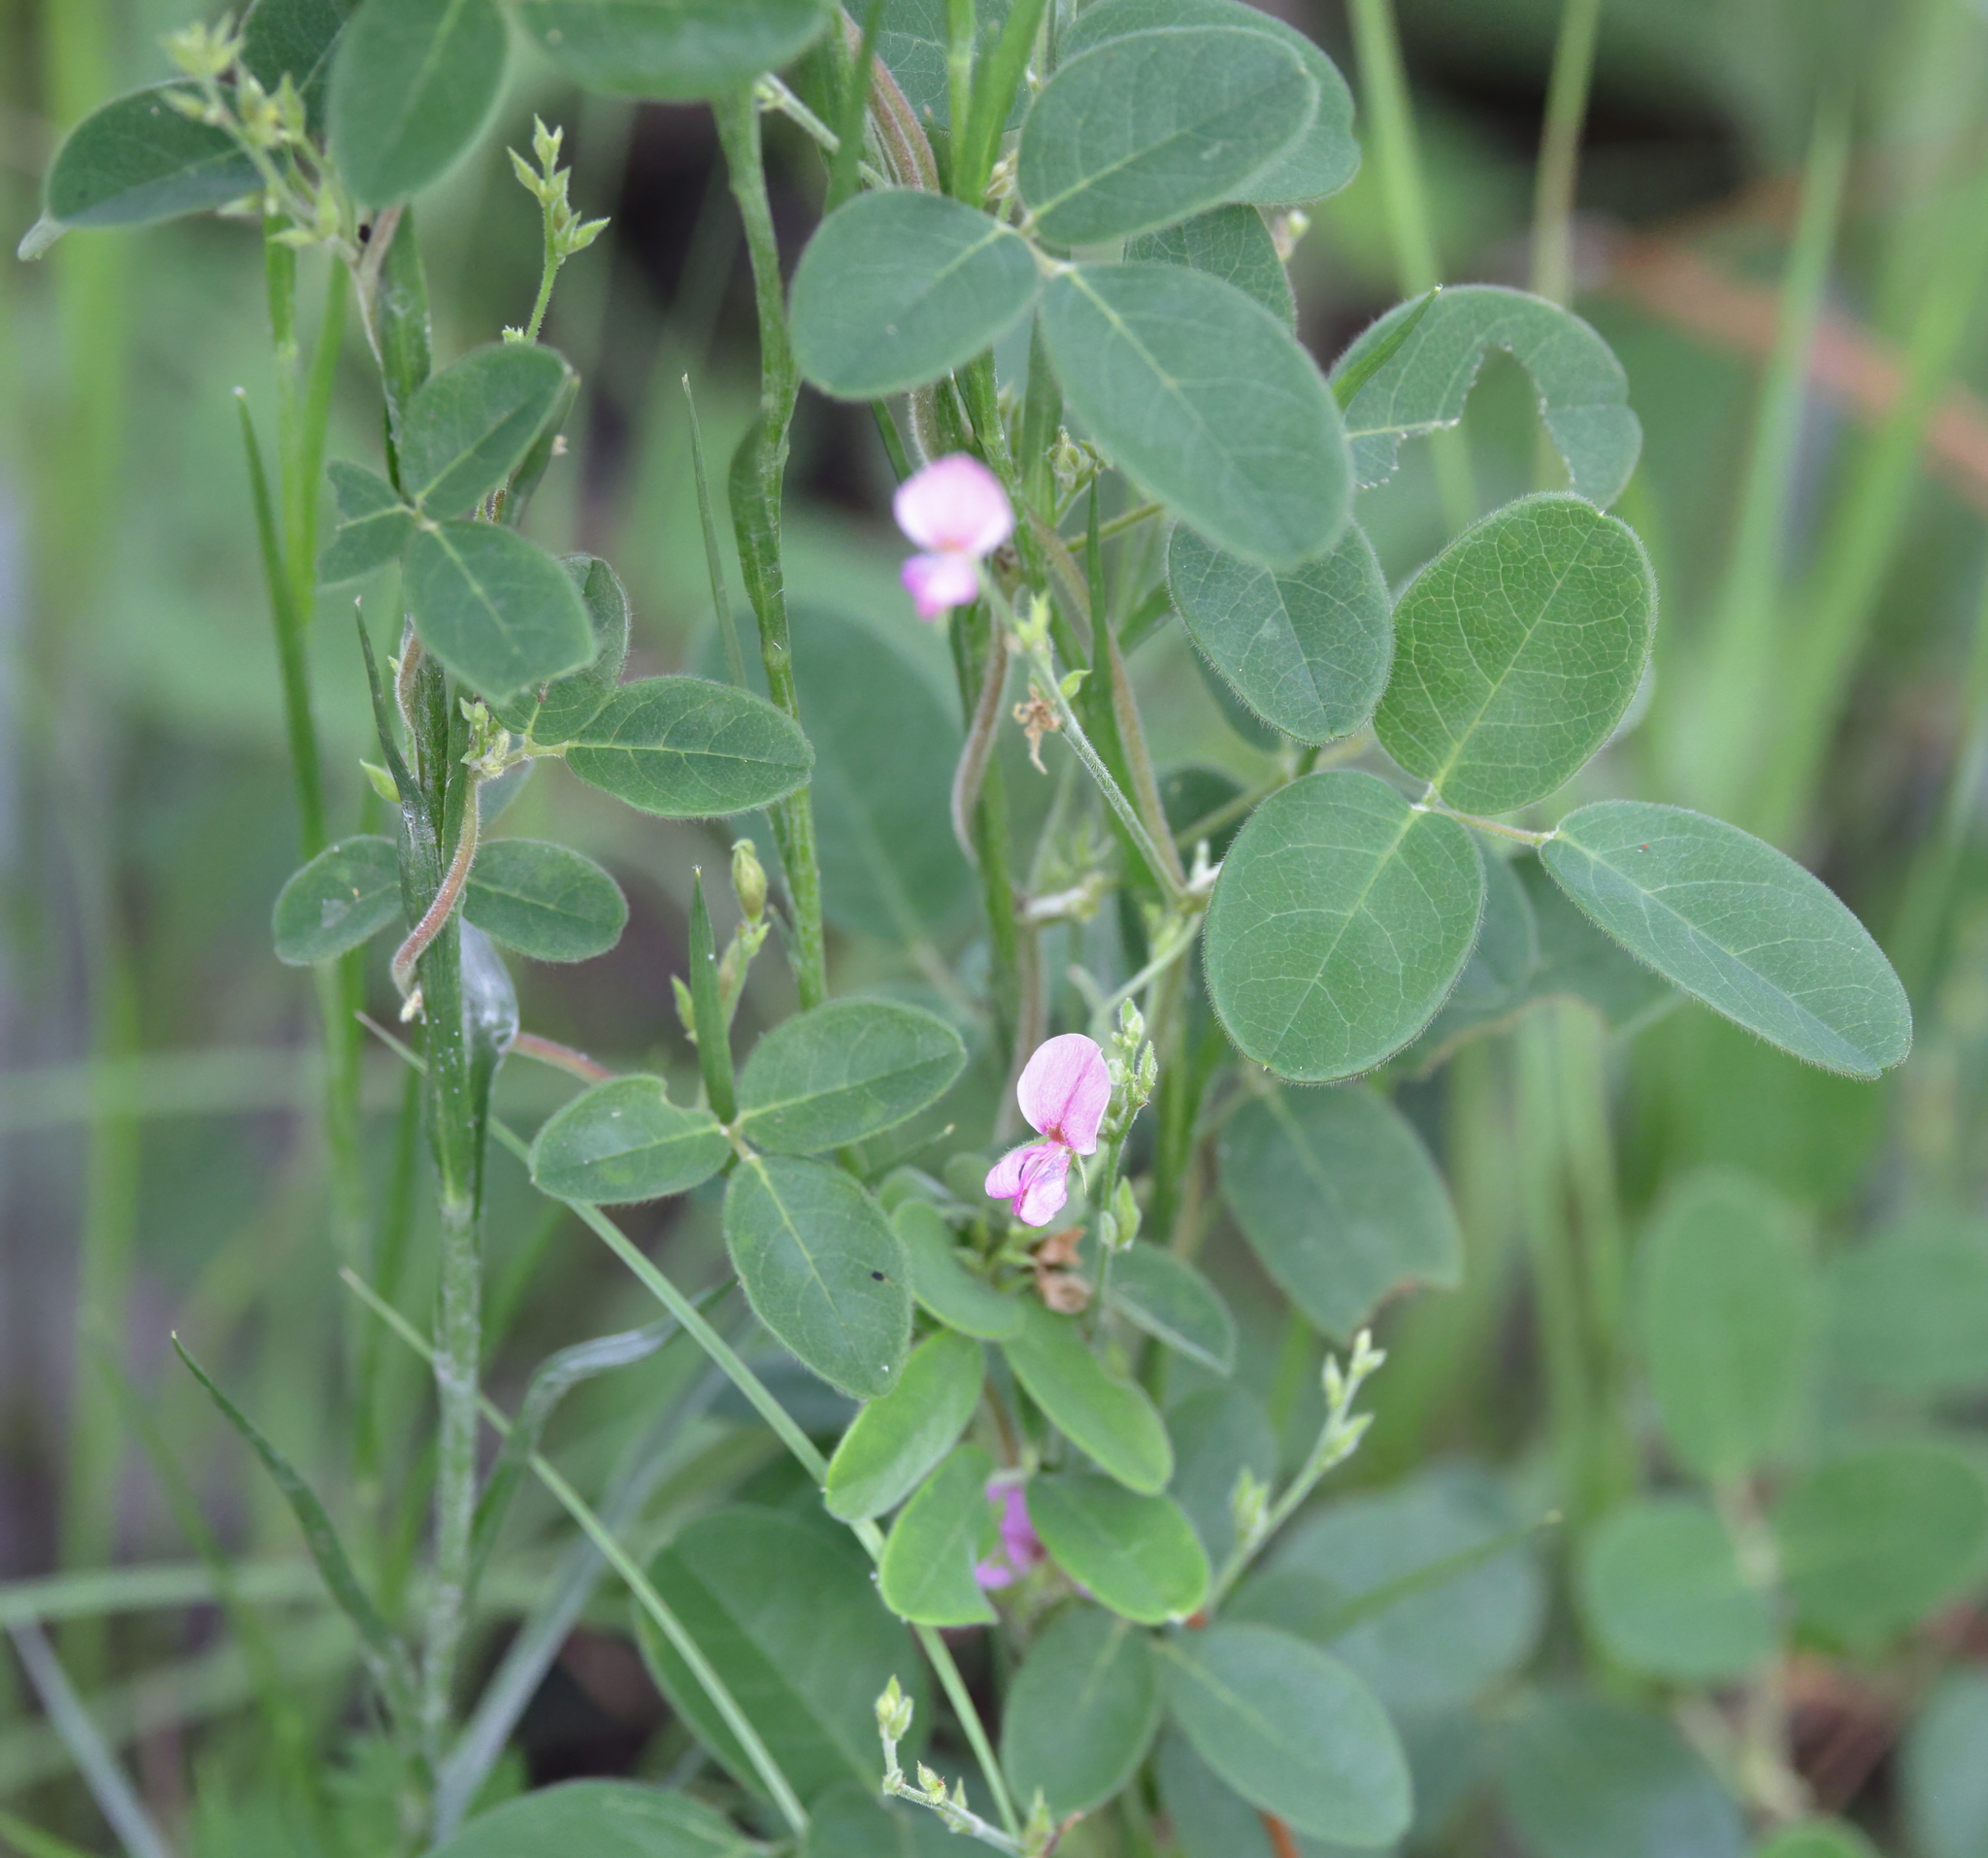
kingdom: Plantae
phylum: Tracheophyta
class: Magnoliopsida
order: Fabales
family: Fabaceae
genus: Galactia
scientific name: Galactia regularis
